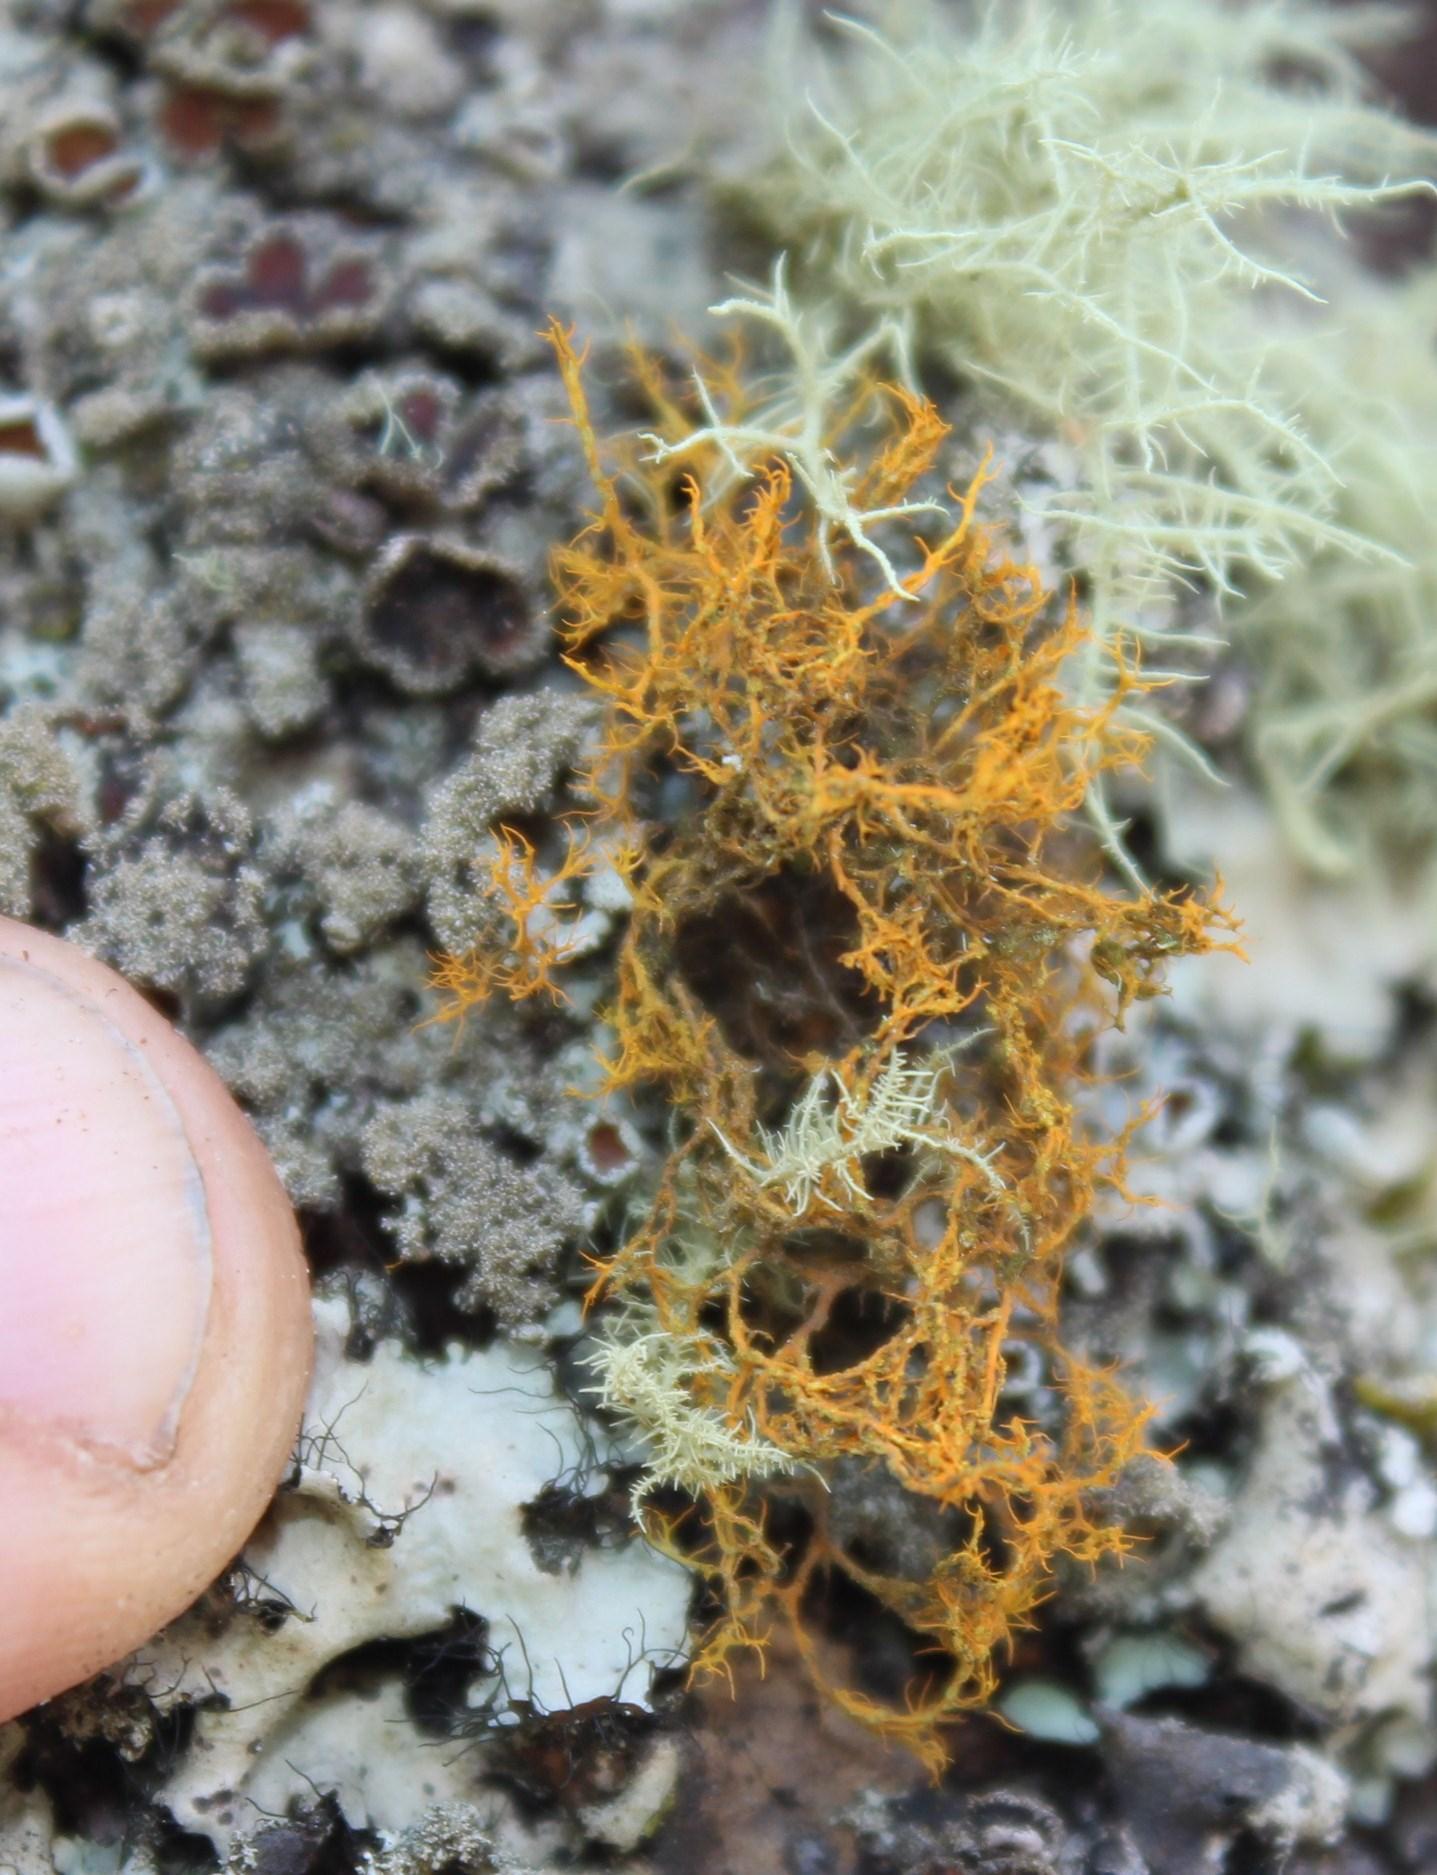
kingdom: Fungi
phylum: Ascomycota
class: Lecanoromycetes
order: Teloschistales
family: Teloschistaceae
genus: Teloschistes
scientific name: Teloschistes flavicans
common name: Golden hair-lichen
